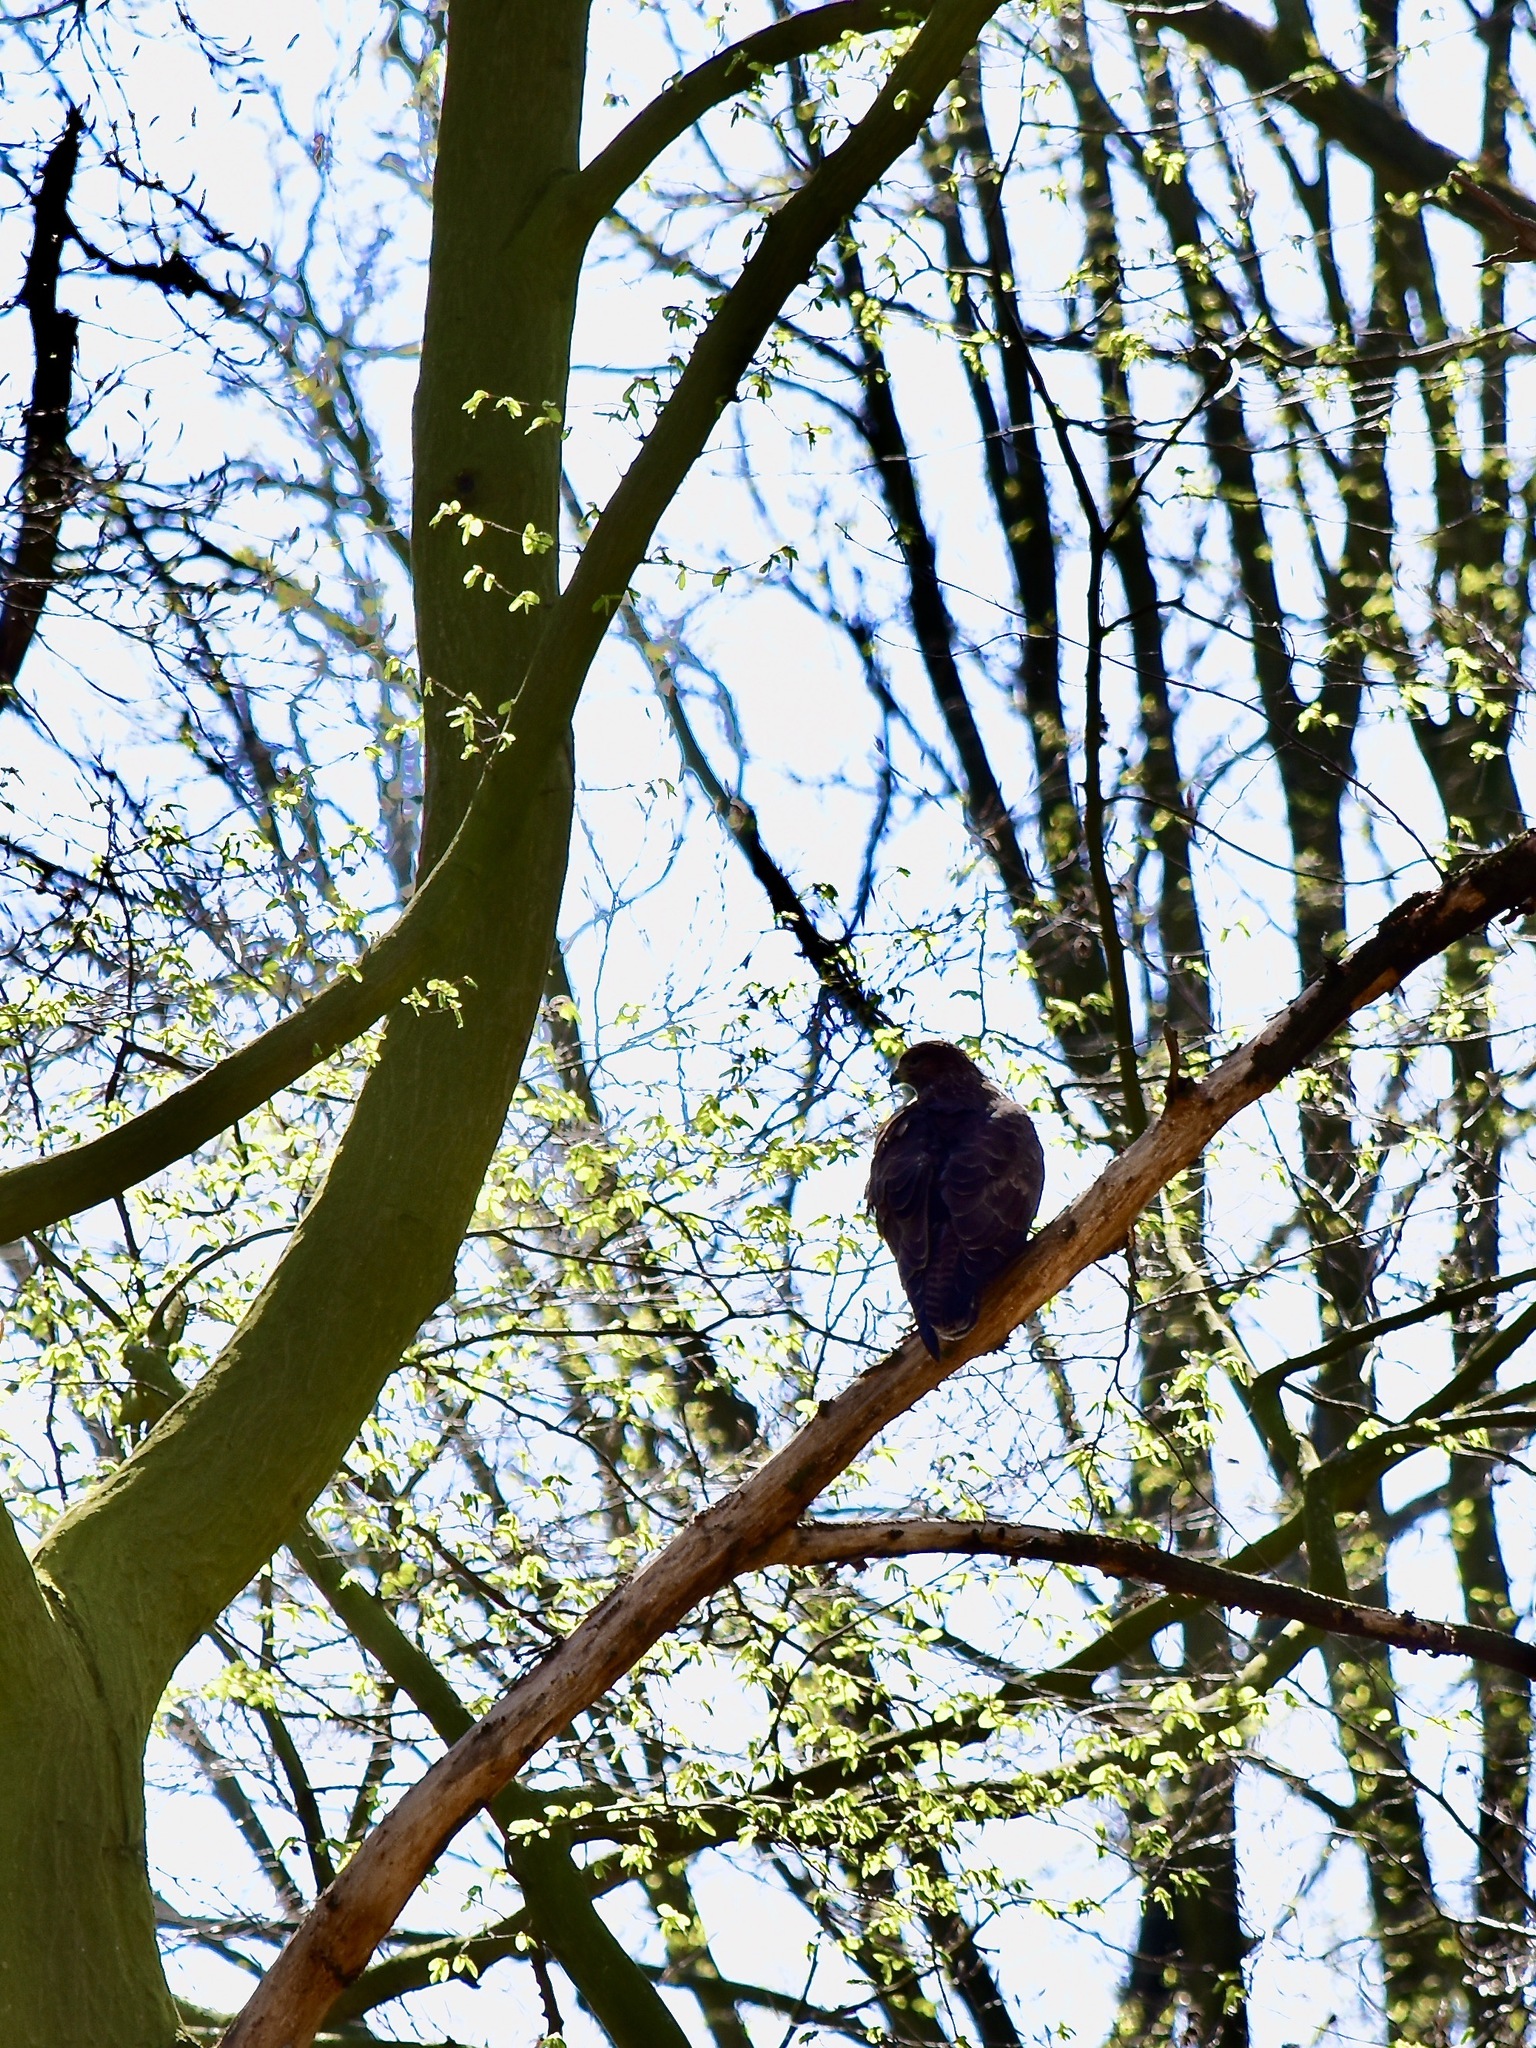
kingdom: Animalia
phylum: Chordata
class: Aves
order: Accipitriformes
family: Accipitridae
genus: Buteo
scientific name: Buteo buteo
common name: Common buzzard
